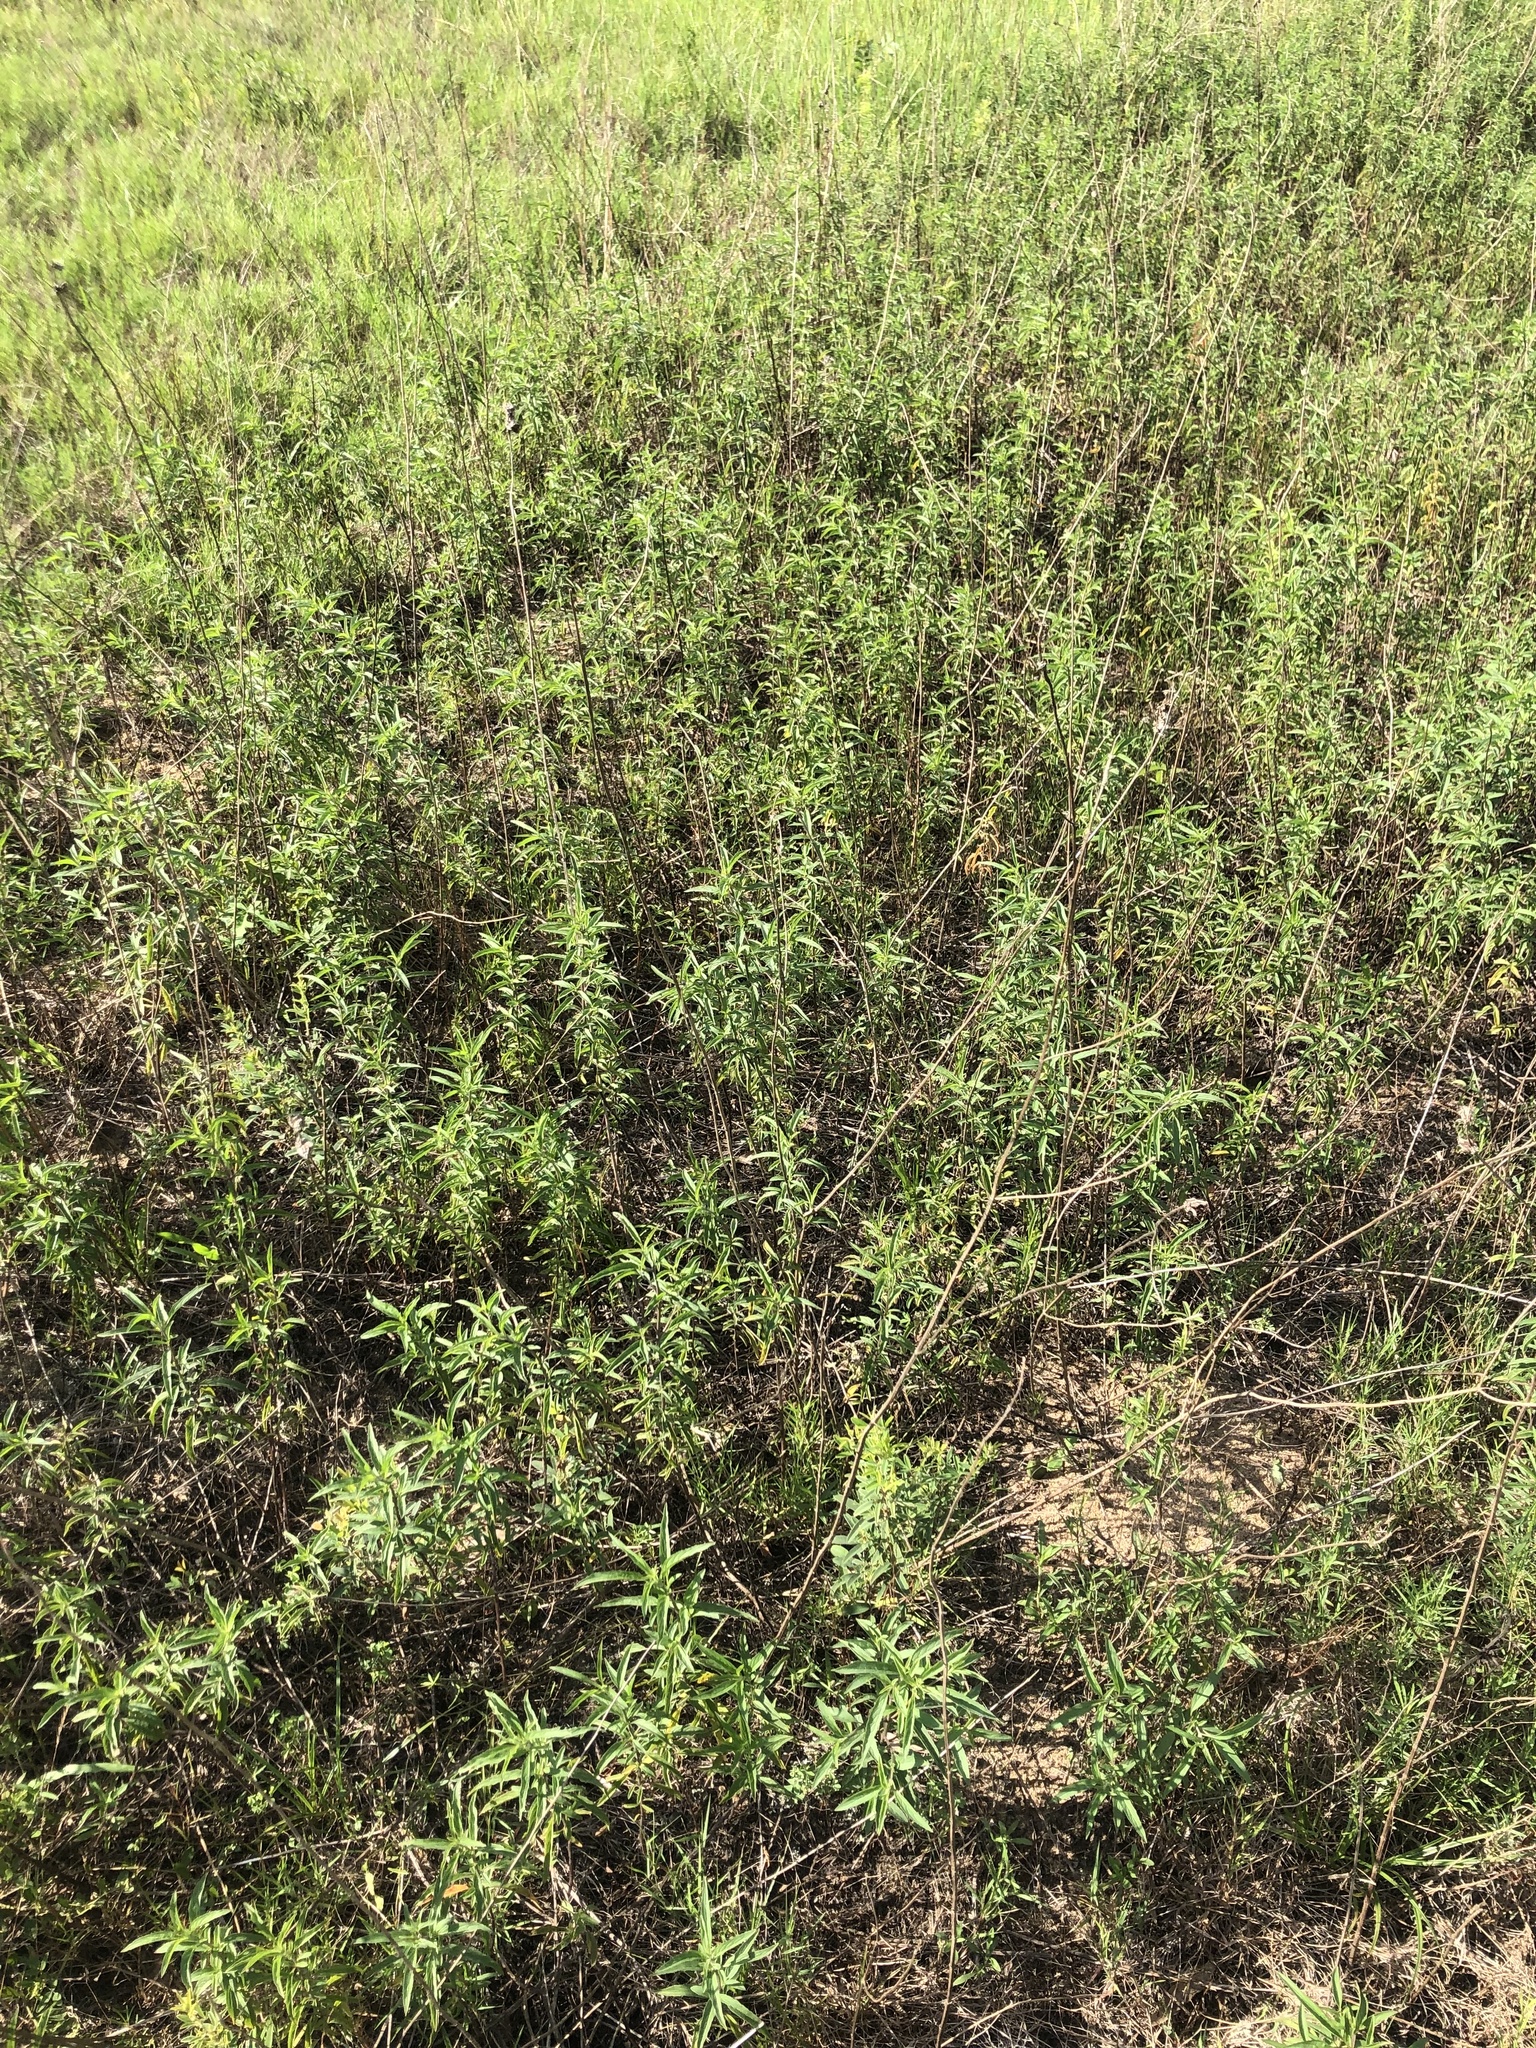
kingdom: Plantae
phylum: Tracheophyta
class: Magnoliopsida
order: Lamiales
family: Lamiaceae
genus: Monarda
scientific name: Monarda punctata
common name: Dotted monarda
